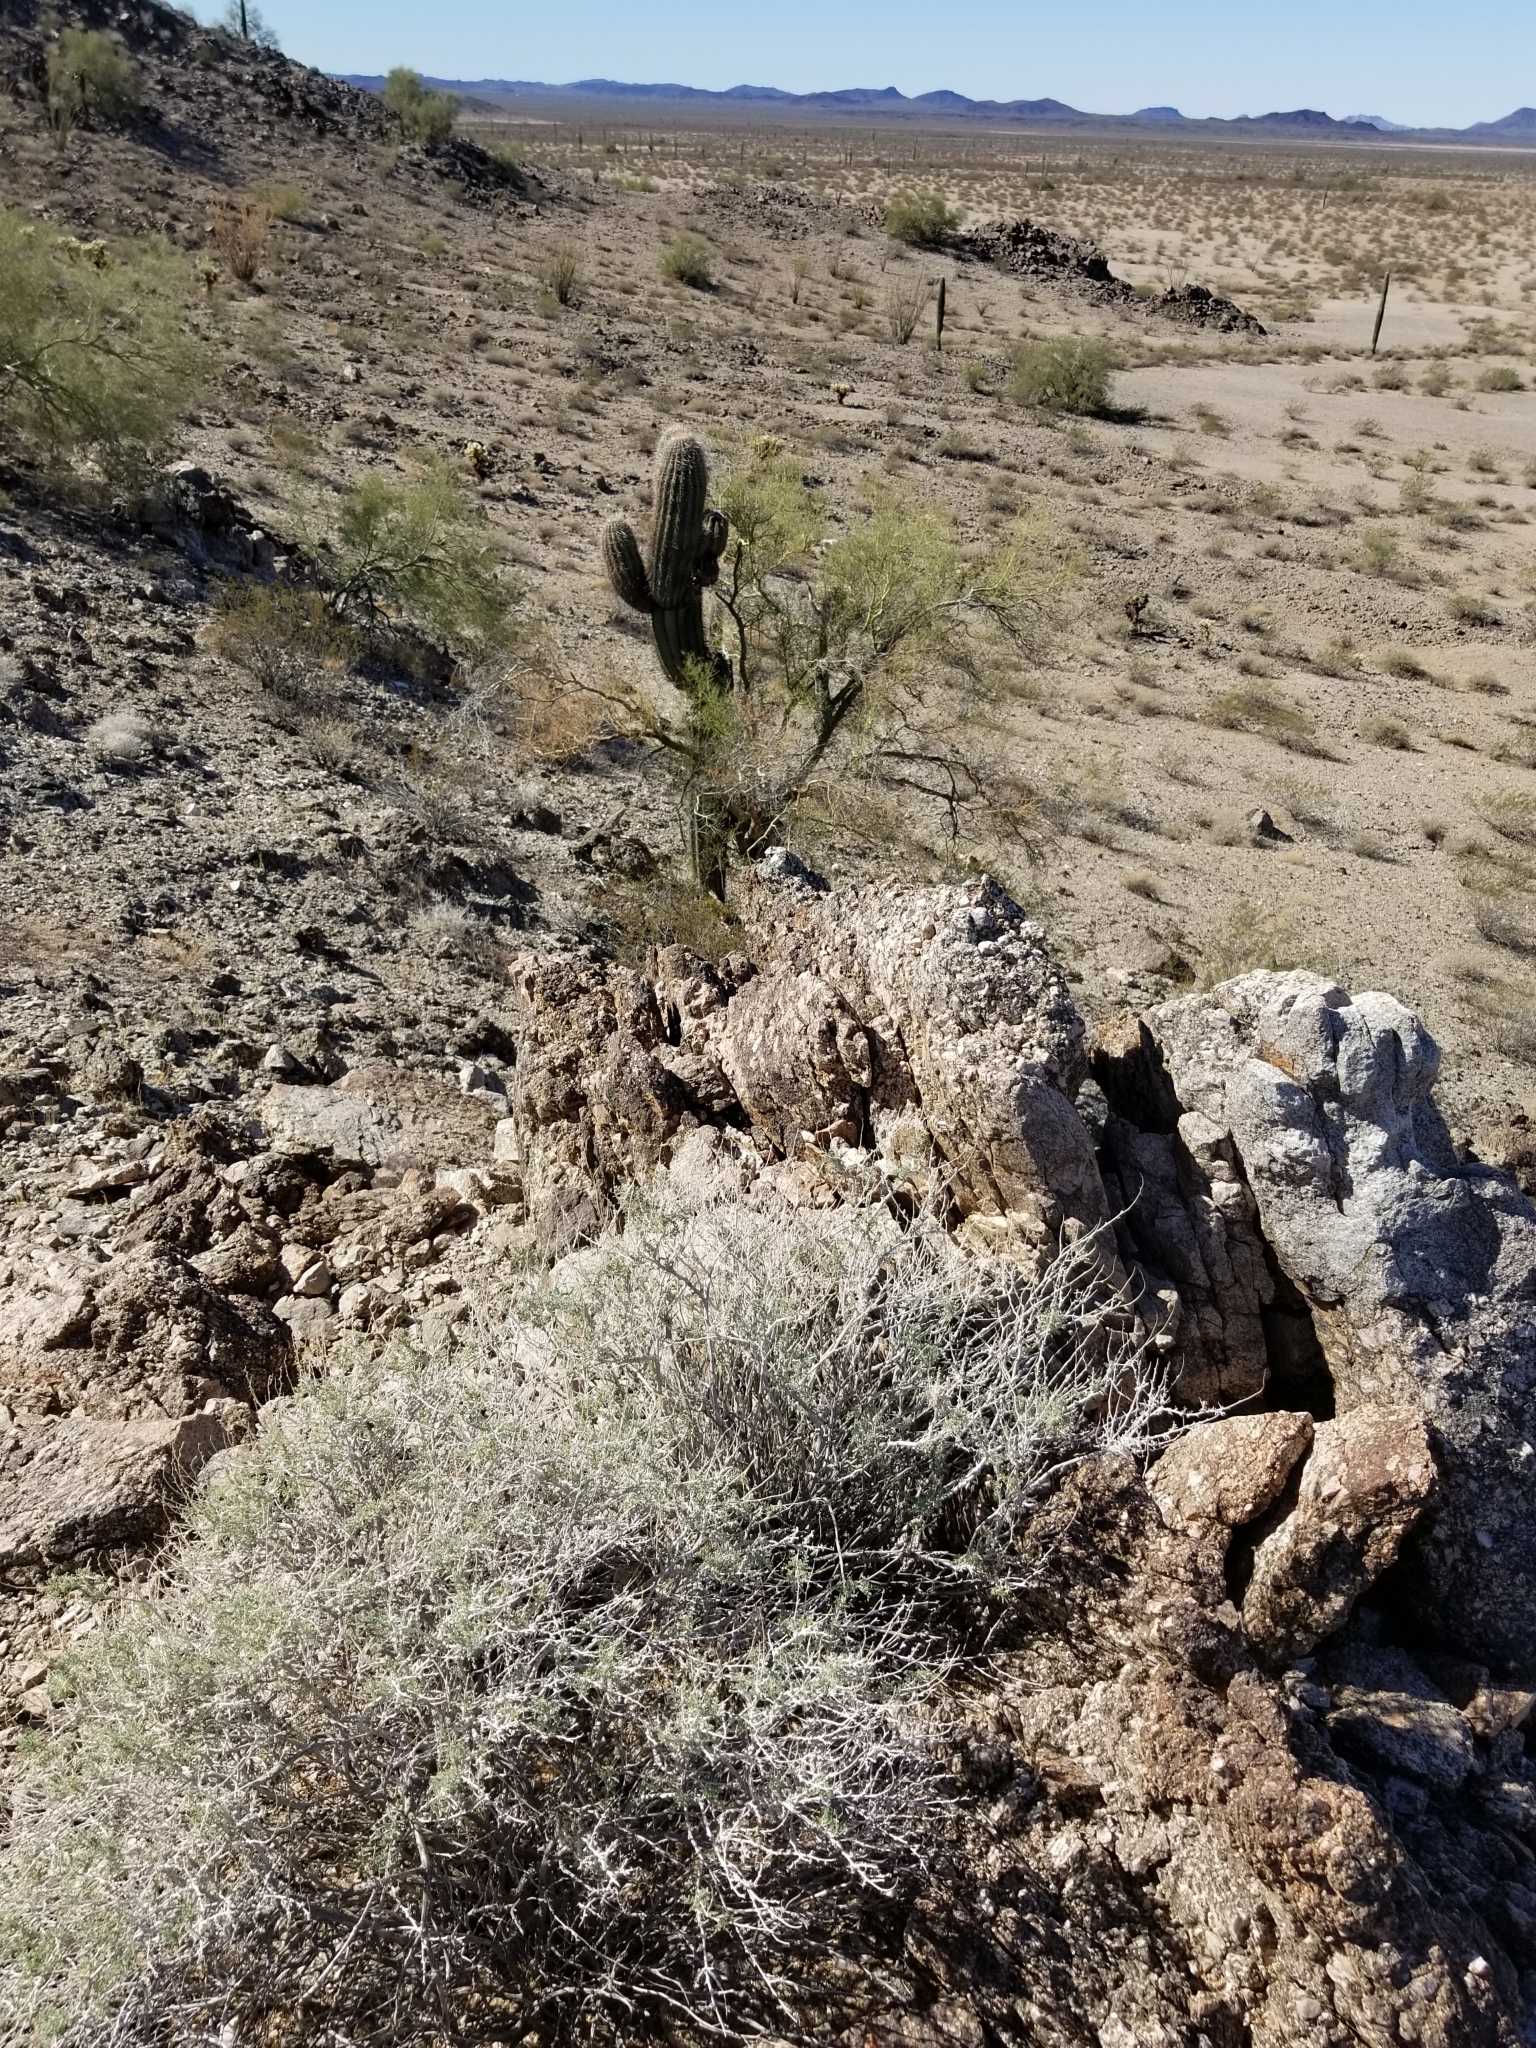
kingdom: Plantae
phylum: Tracheophyta
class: Magnoliopsida
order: Asterales
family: Asteraceae
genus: Ambrosia
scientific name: Ambrosia dumosa
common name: Bur-sage
